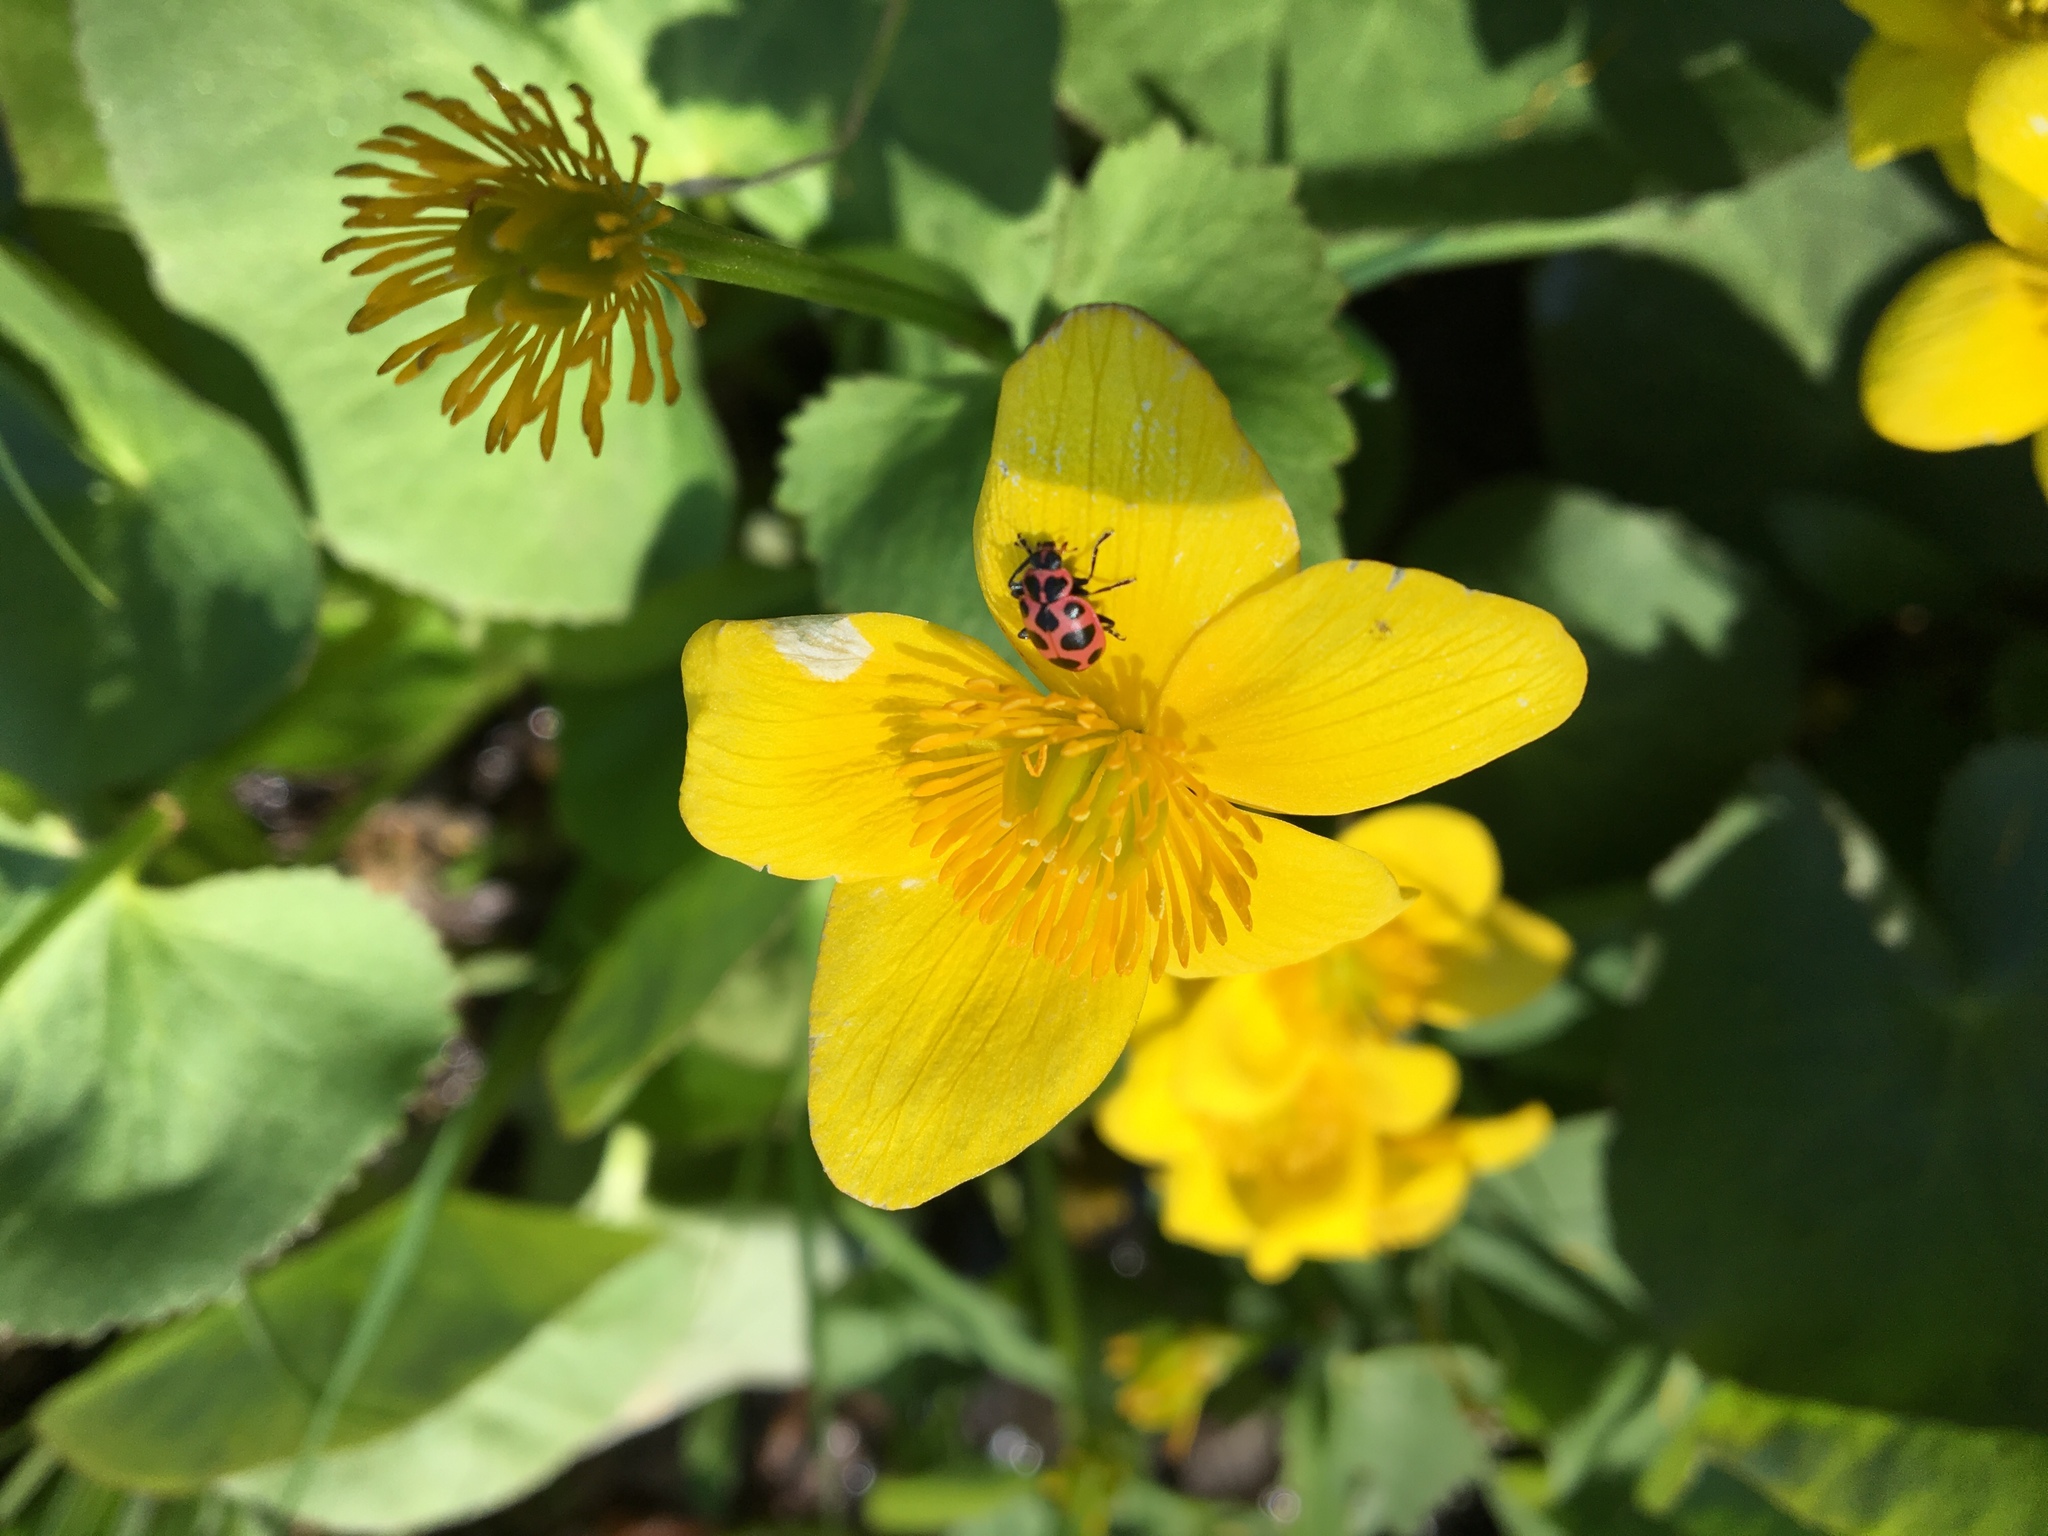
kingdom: Animalia
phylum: Arthropoda
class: Insecta
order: Coleoptera
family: Coccinellidae
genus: Coleomegilla
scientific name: Coleomegilla maculata
